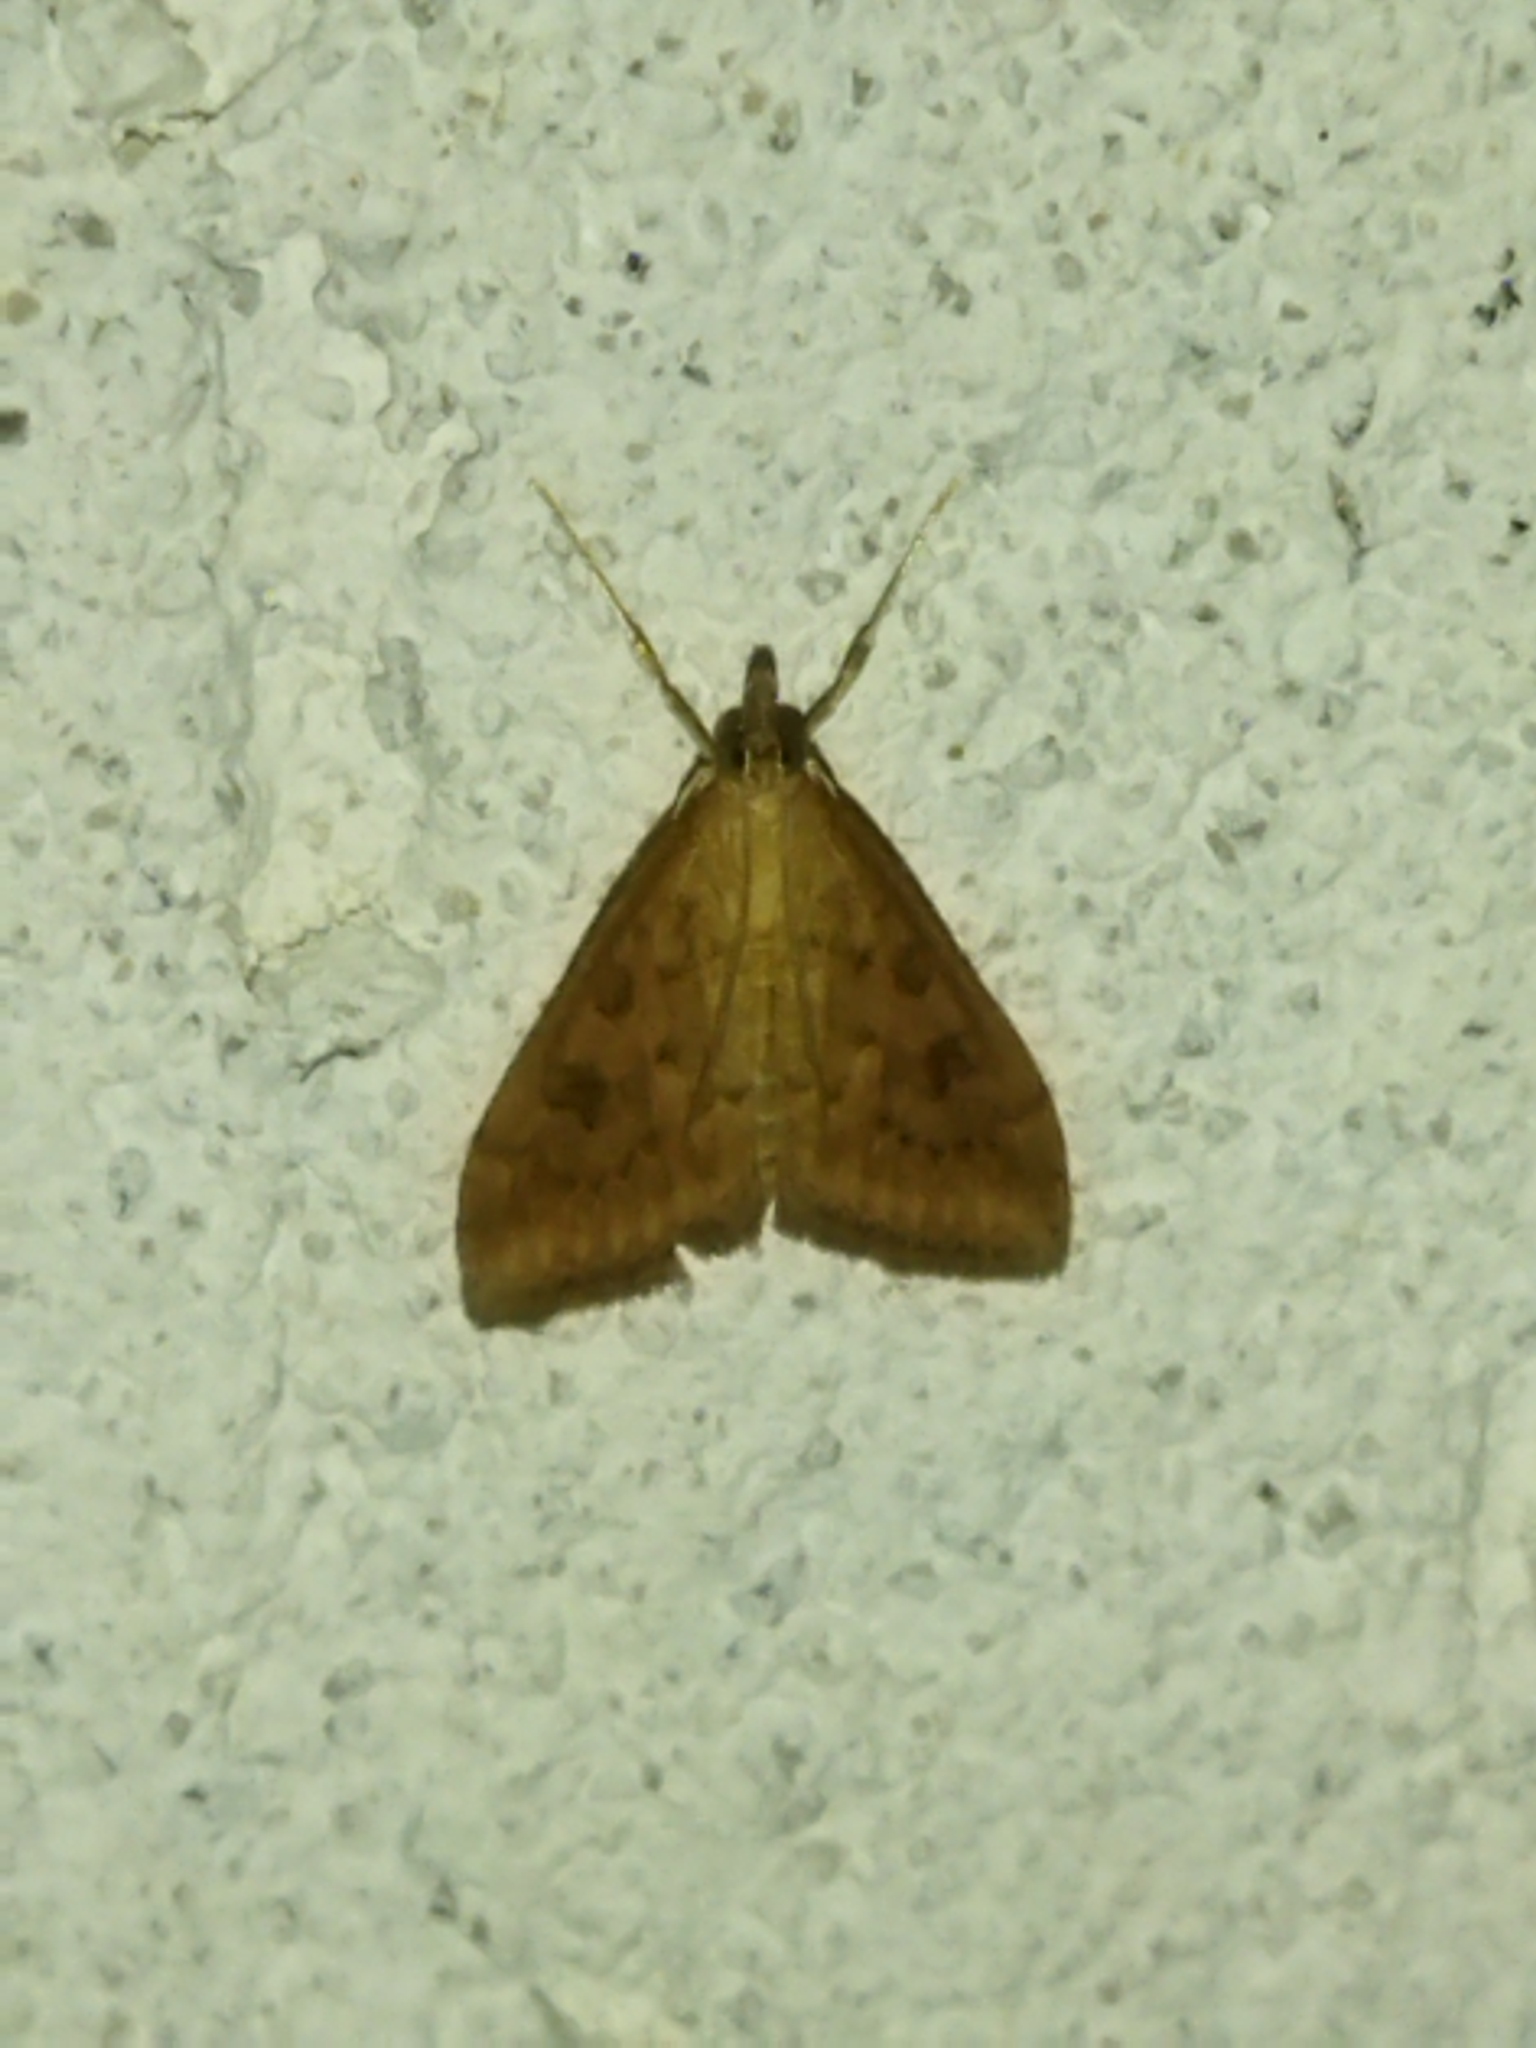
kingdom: Animalia
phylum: Arthropoda
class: Insecta
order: Lepidoptera
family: Crambidae
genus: Udea
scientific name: Udea ferrugalis
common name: Rusty dot
